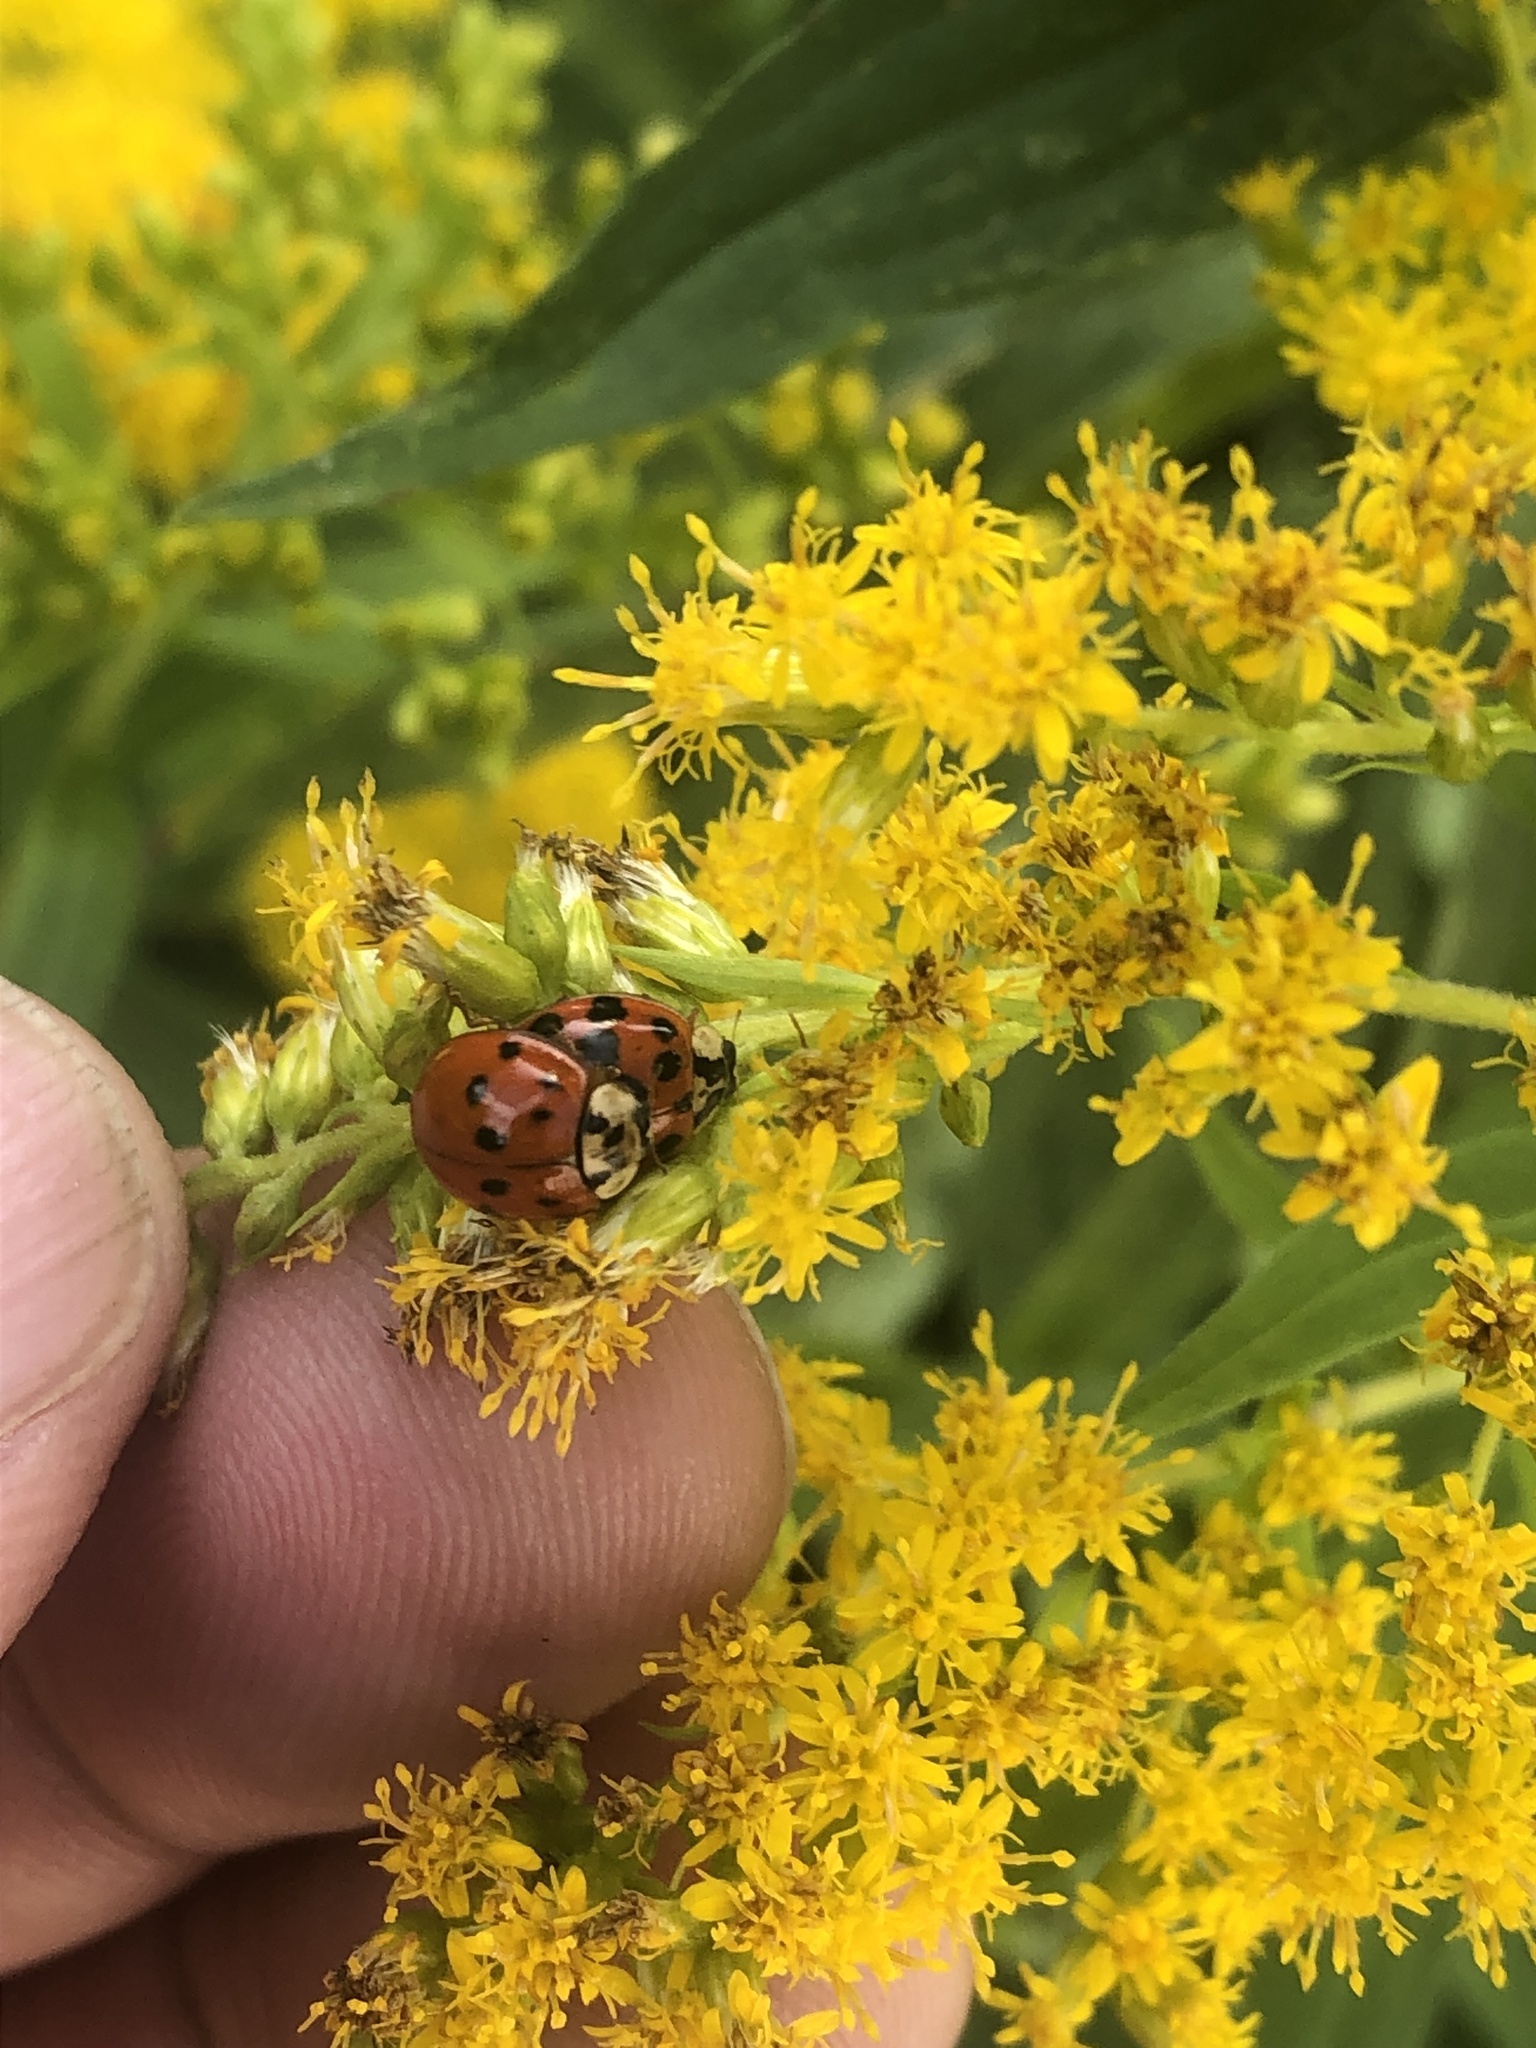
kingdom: Animalia
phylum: Arthropoda
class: Insecta
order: Coleoptera
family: Coccinellidae
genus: Harmonia
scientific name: Harmonia axyridis
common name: Harlequin ladybird
